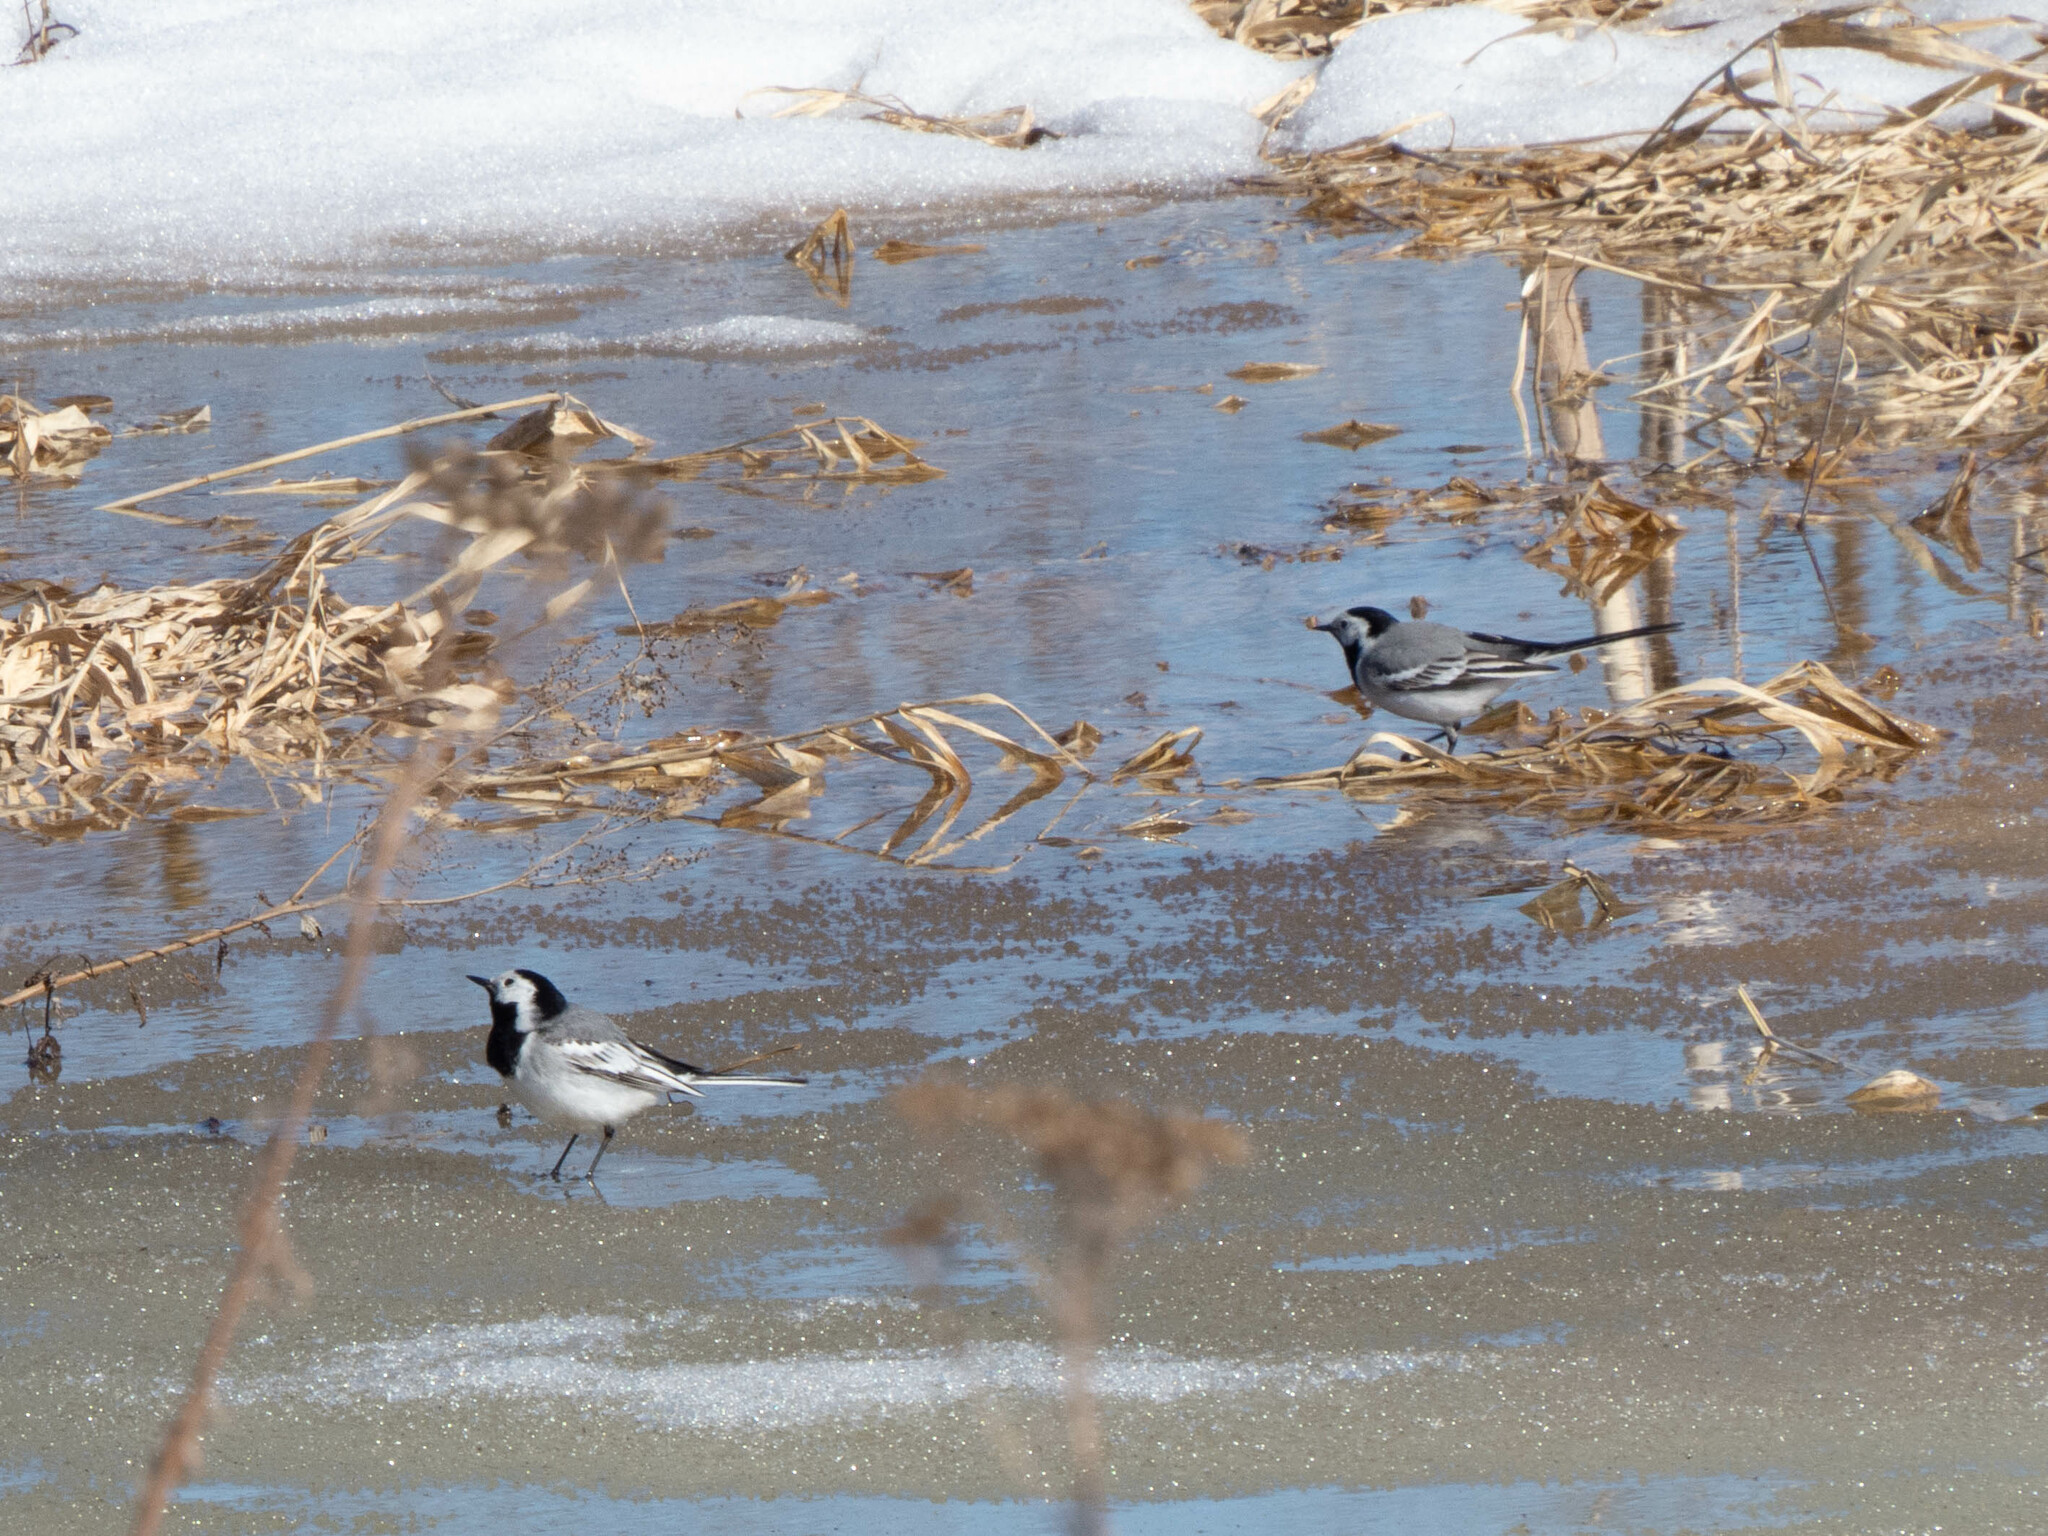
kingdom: Animalia
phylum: Chordata
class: Aves
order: Passeriformes
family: Motacillidae
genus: Motacilla
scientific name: Motacilla alba
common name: White wagtail
